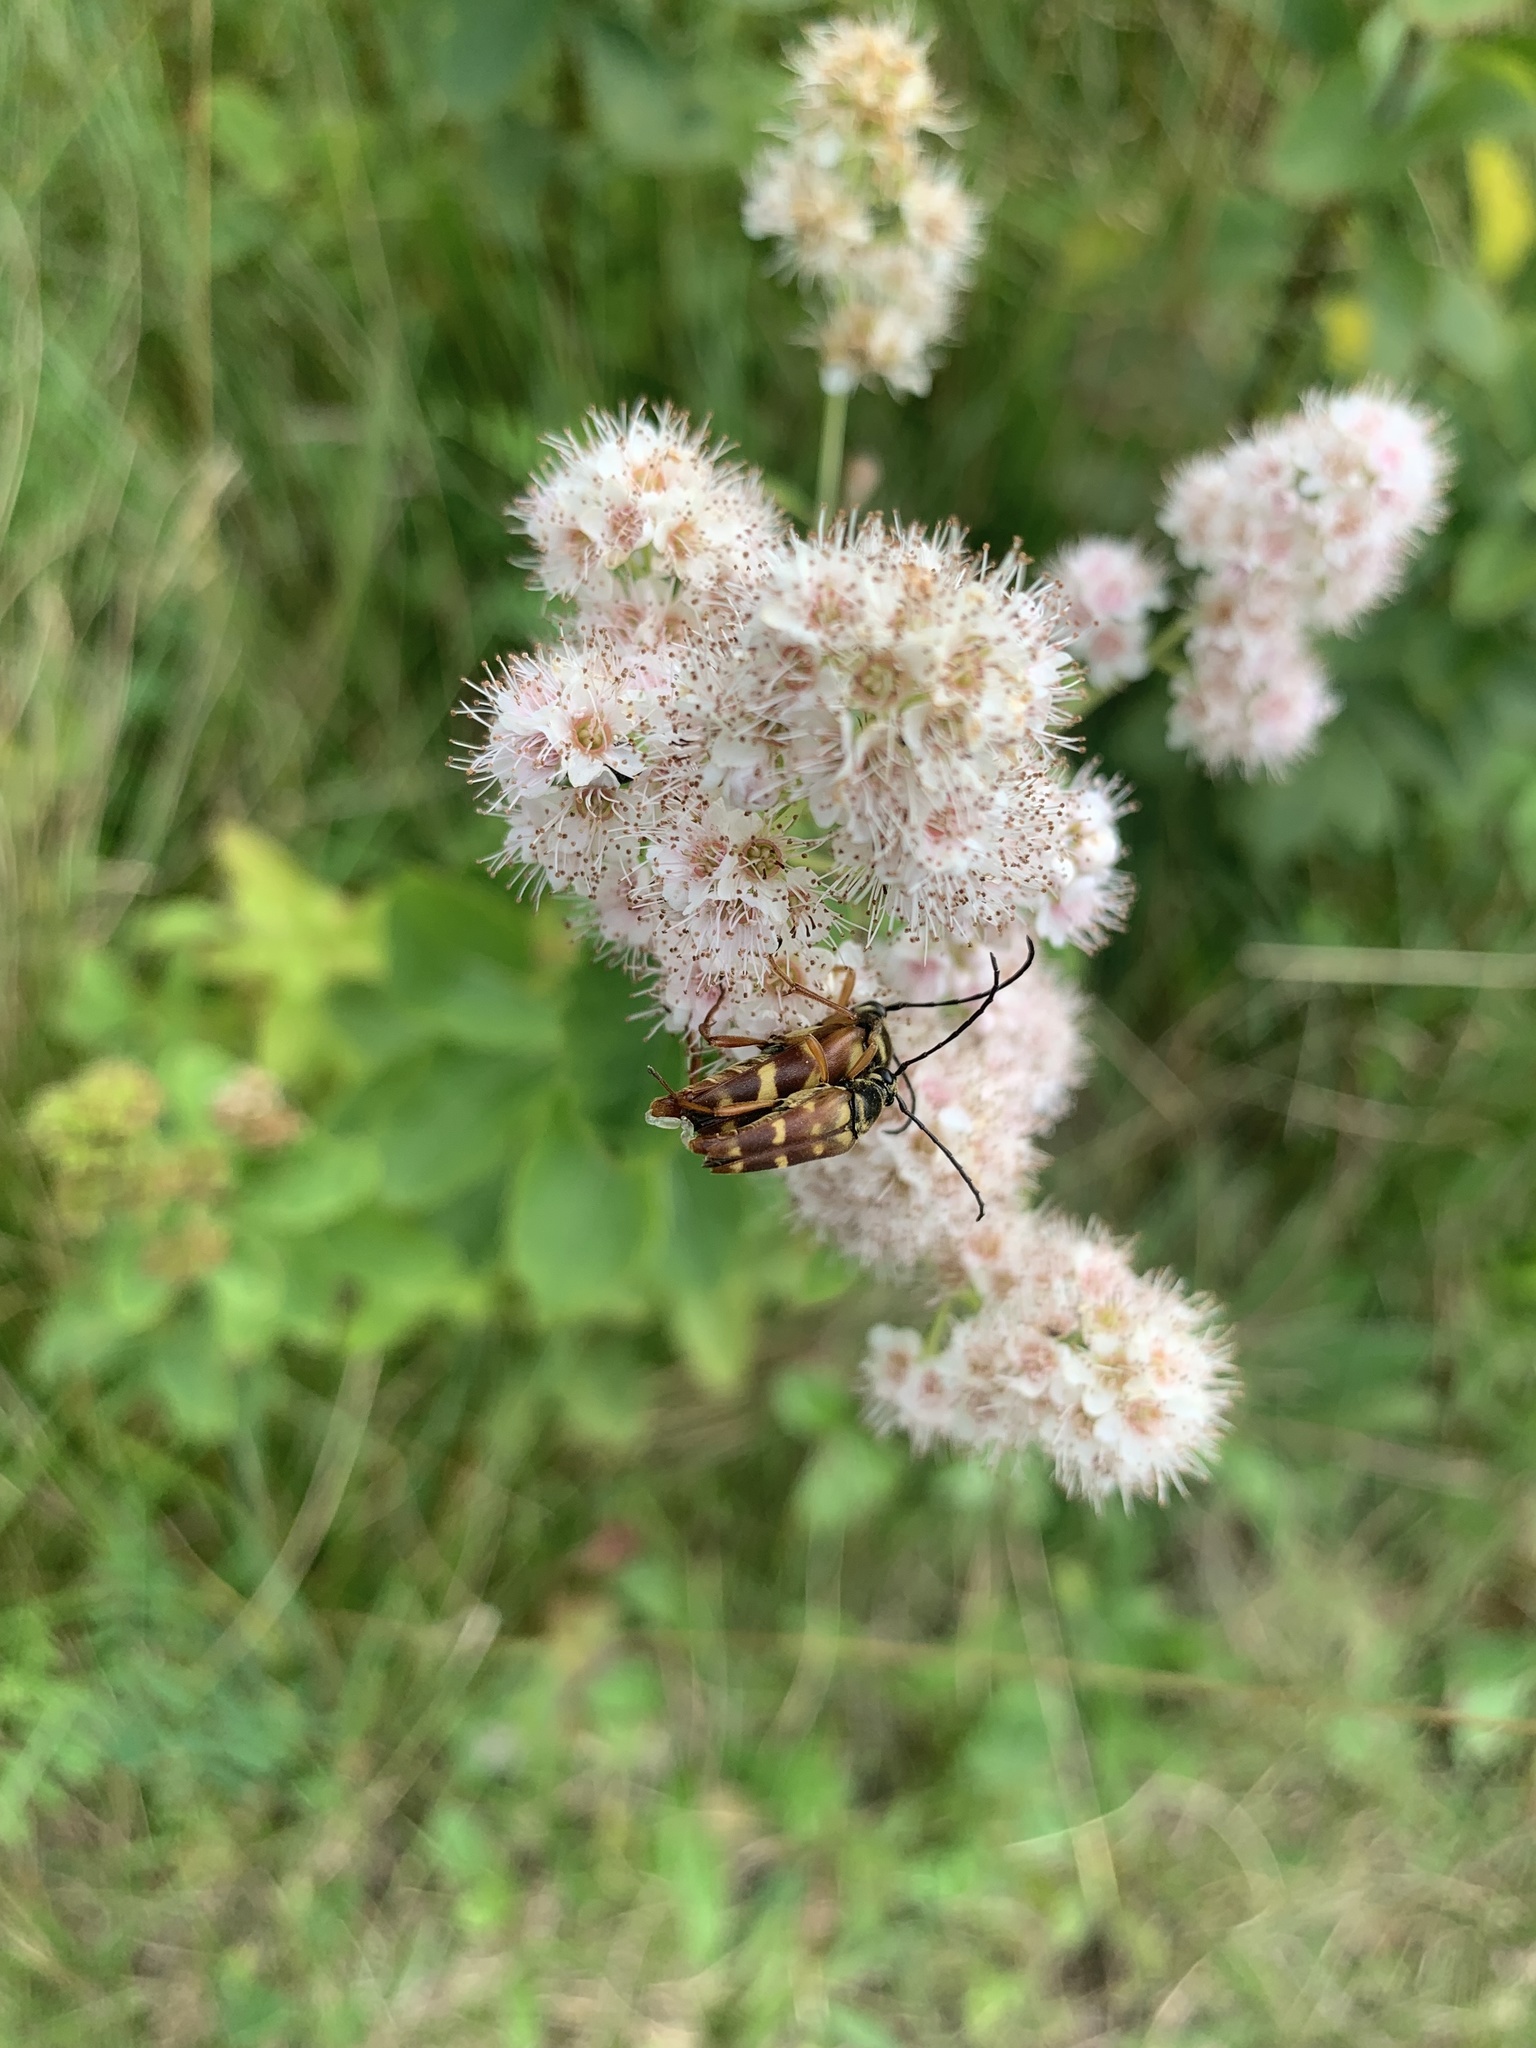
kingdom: Animalia
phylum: Arthropoda
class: Insecta
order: Coleoptera
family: Cerambycidae
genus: Typocerus
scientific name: Typocerus velutinus
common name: Banded longhorn beetle
